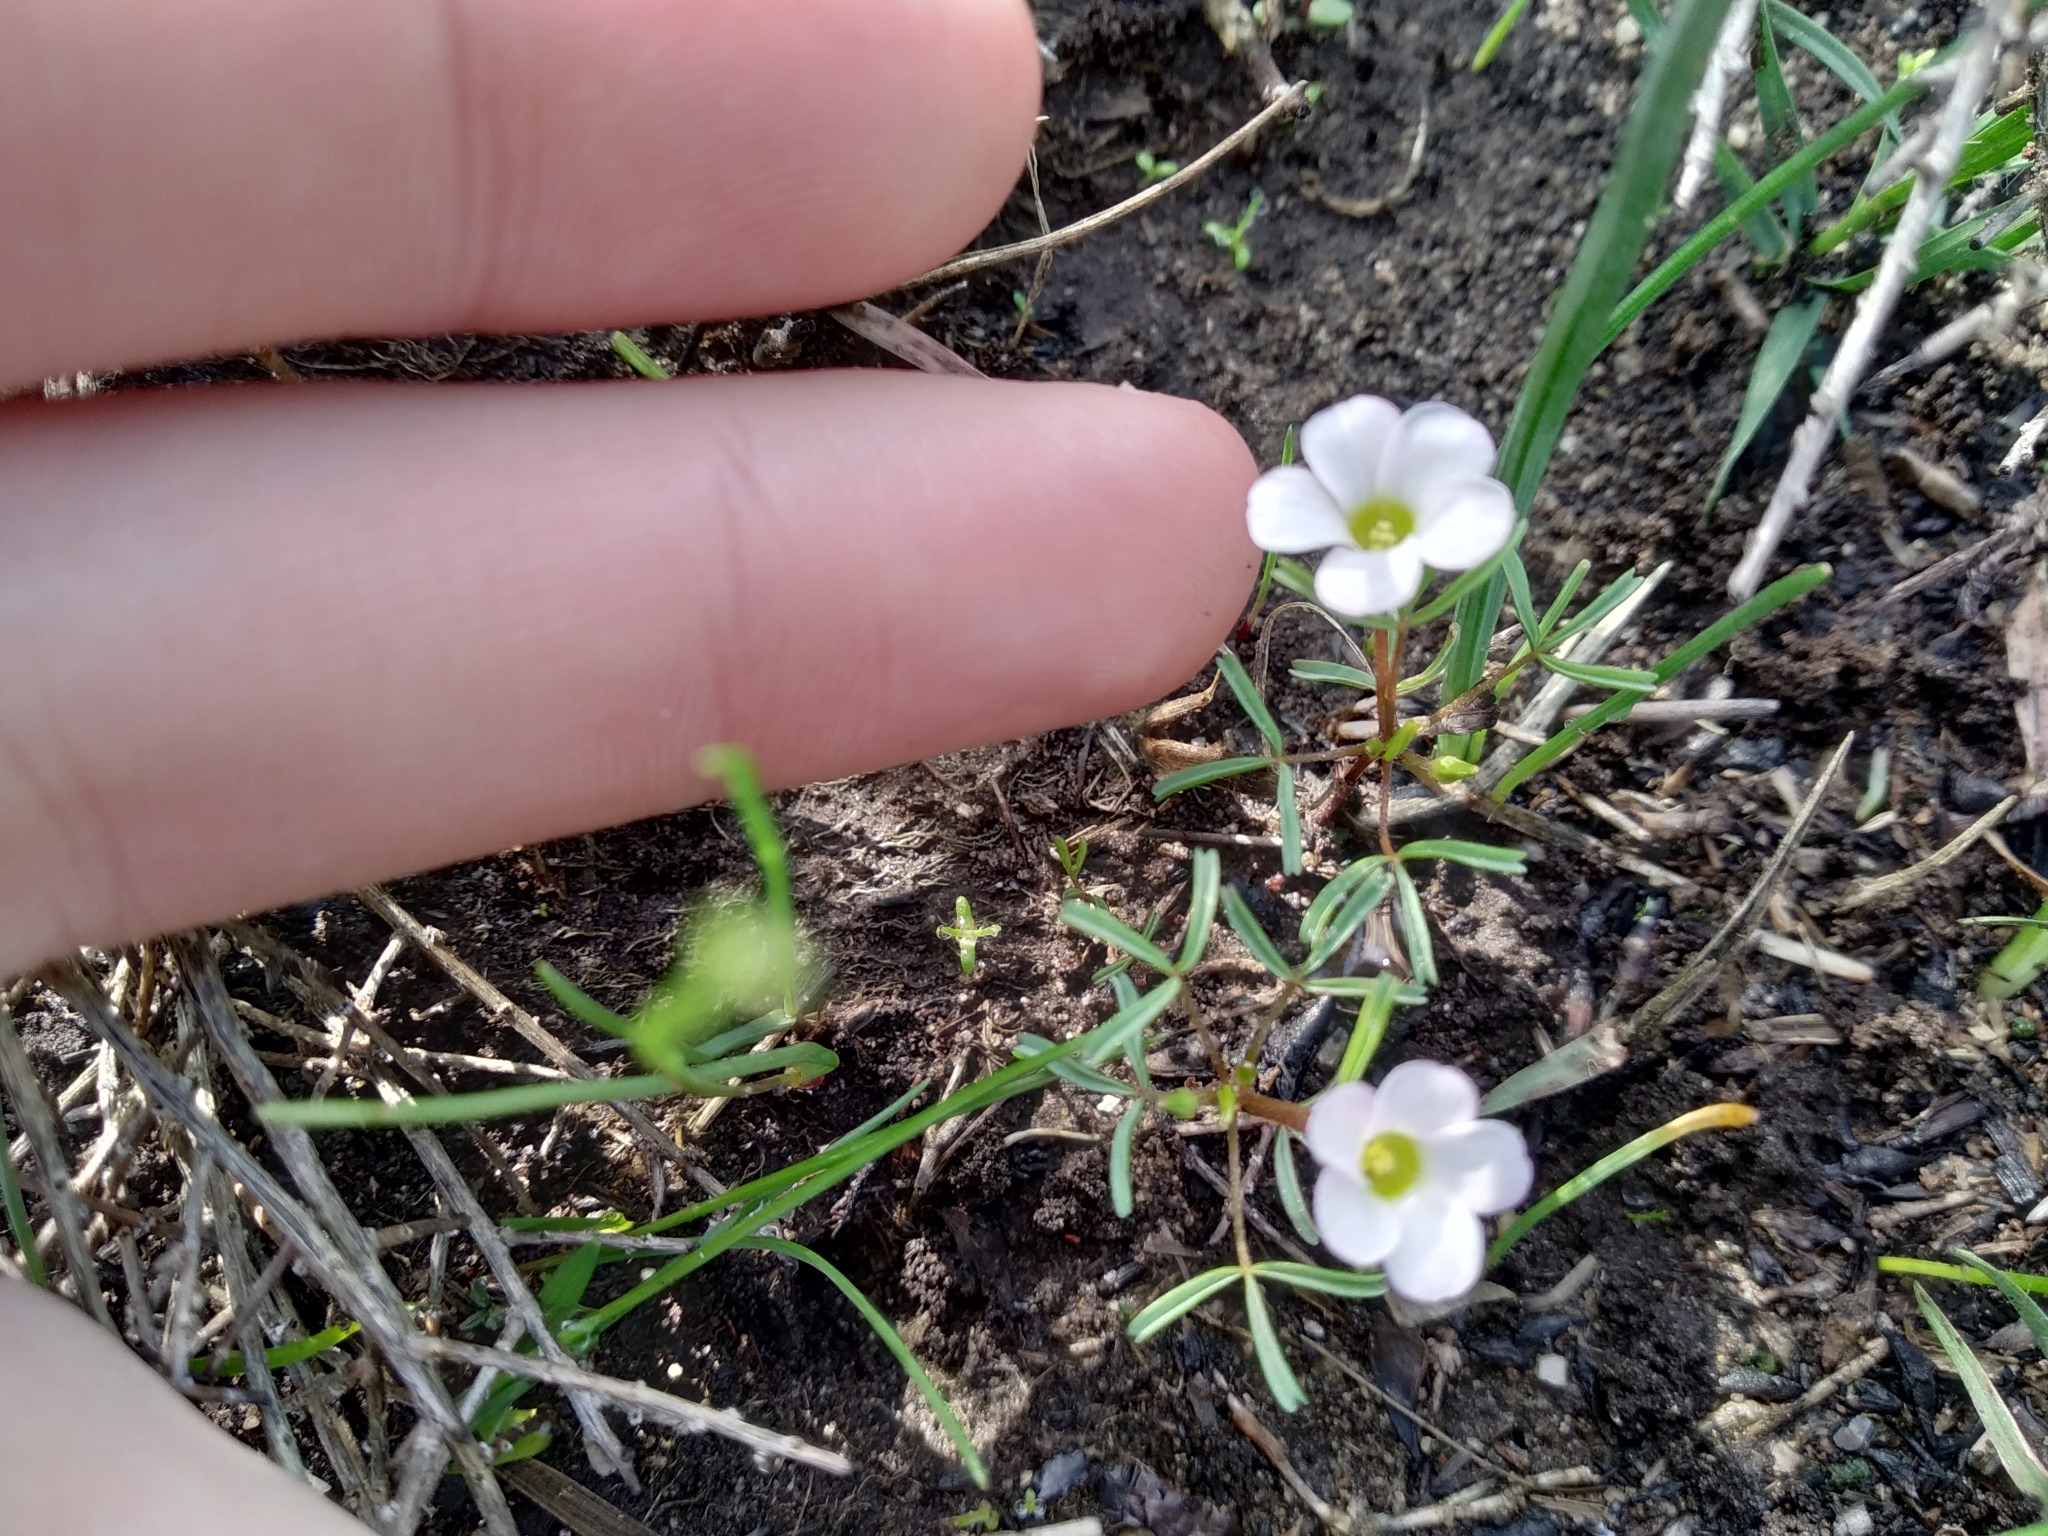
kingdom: Plantae
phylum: Tracheophyta
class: Magnoliopsida
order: Oxalidales
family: Oxalidaceae
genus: Oxalis
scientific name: Oxalis pusilla
